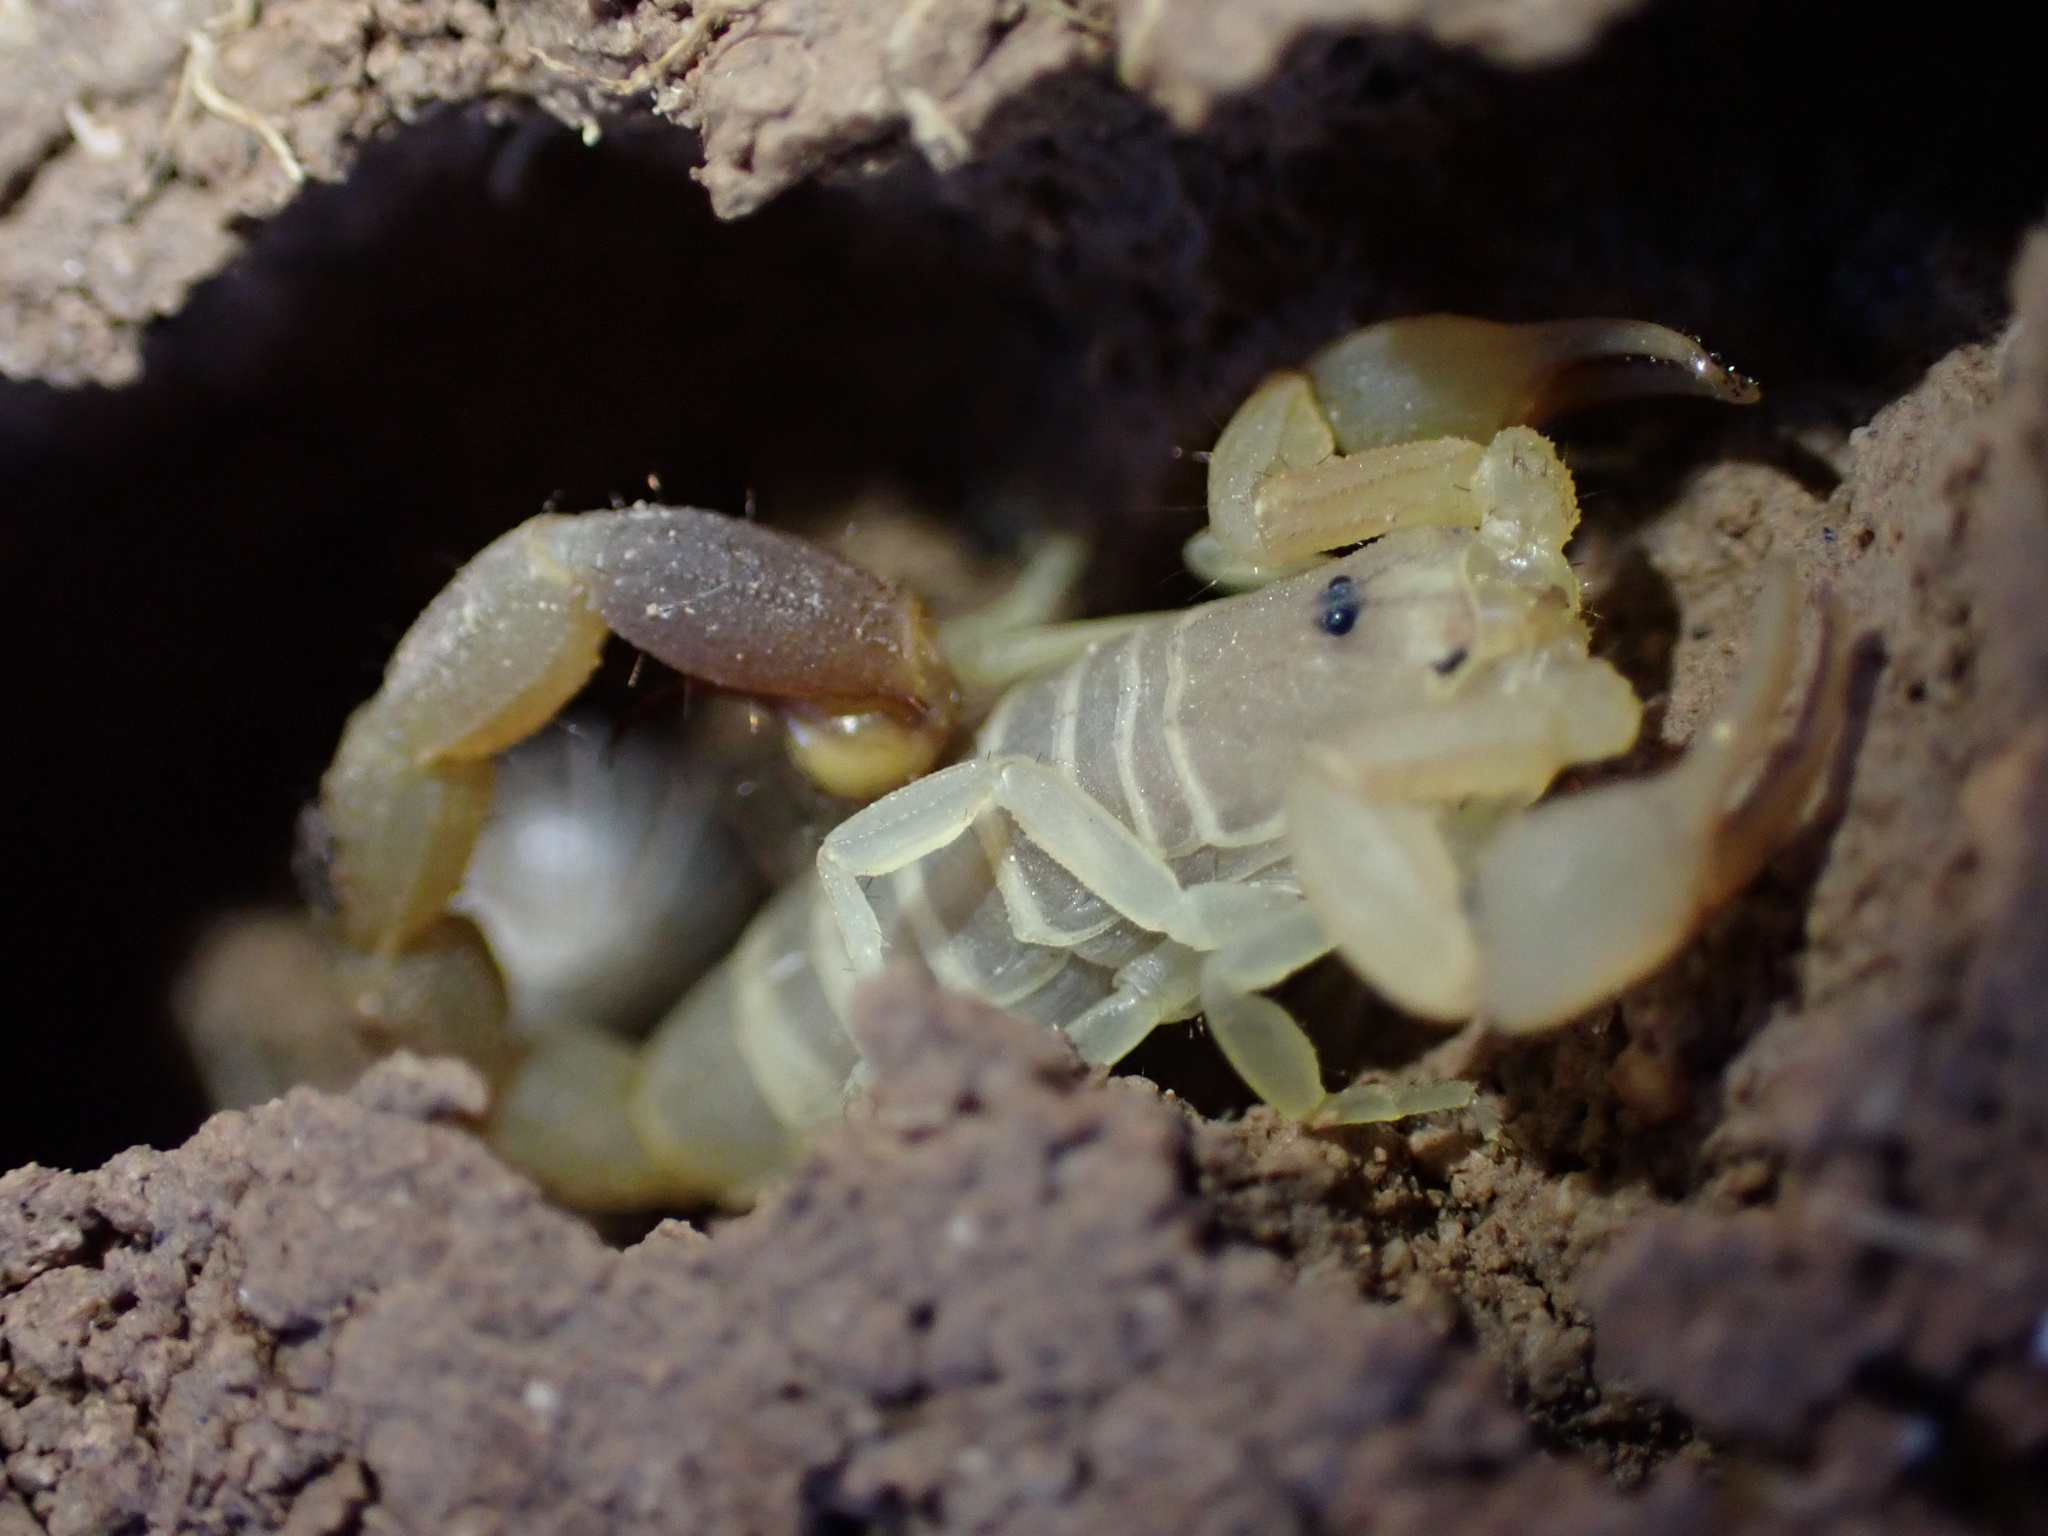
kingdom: Animalia
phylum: Arthropoda
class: Arachnida
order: Scorpiones
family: Buthidae
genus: Razianus
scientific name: Razianus zarudnyi
